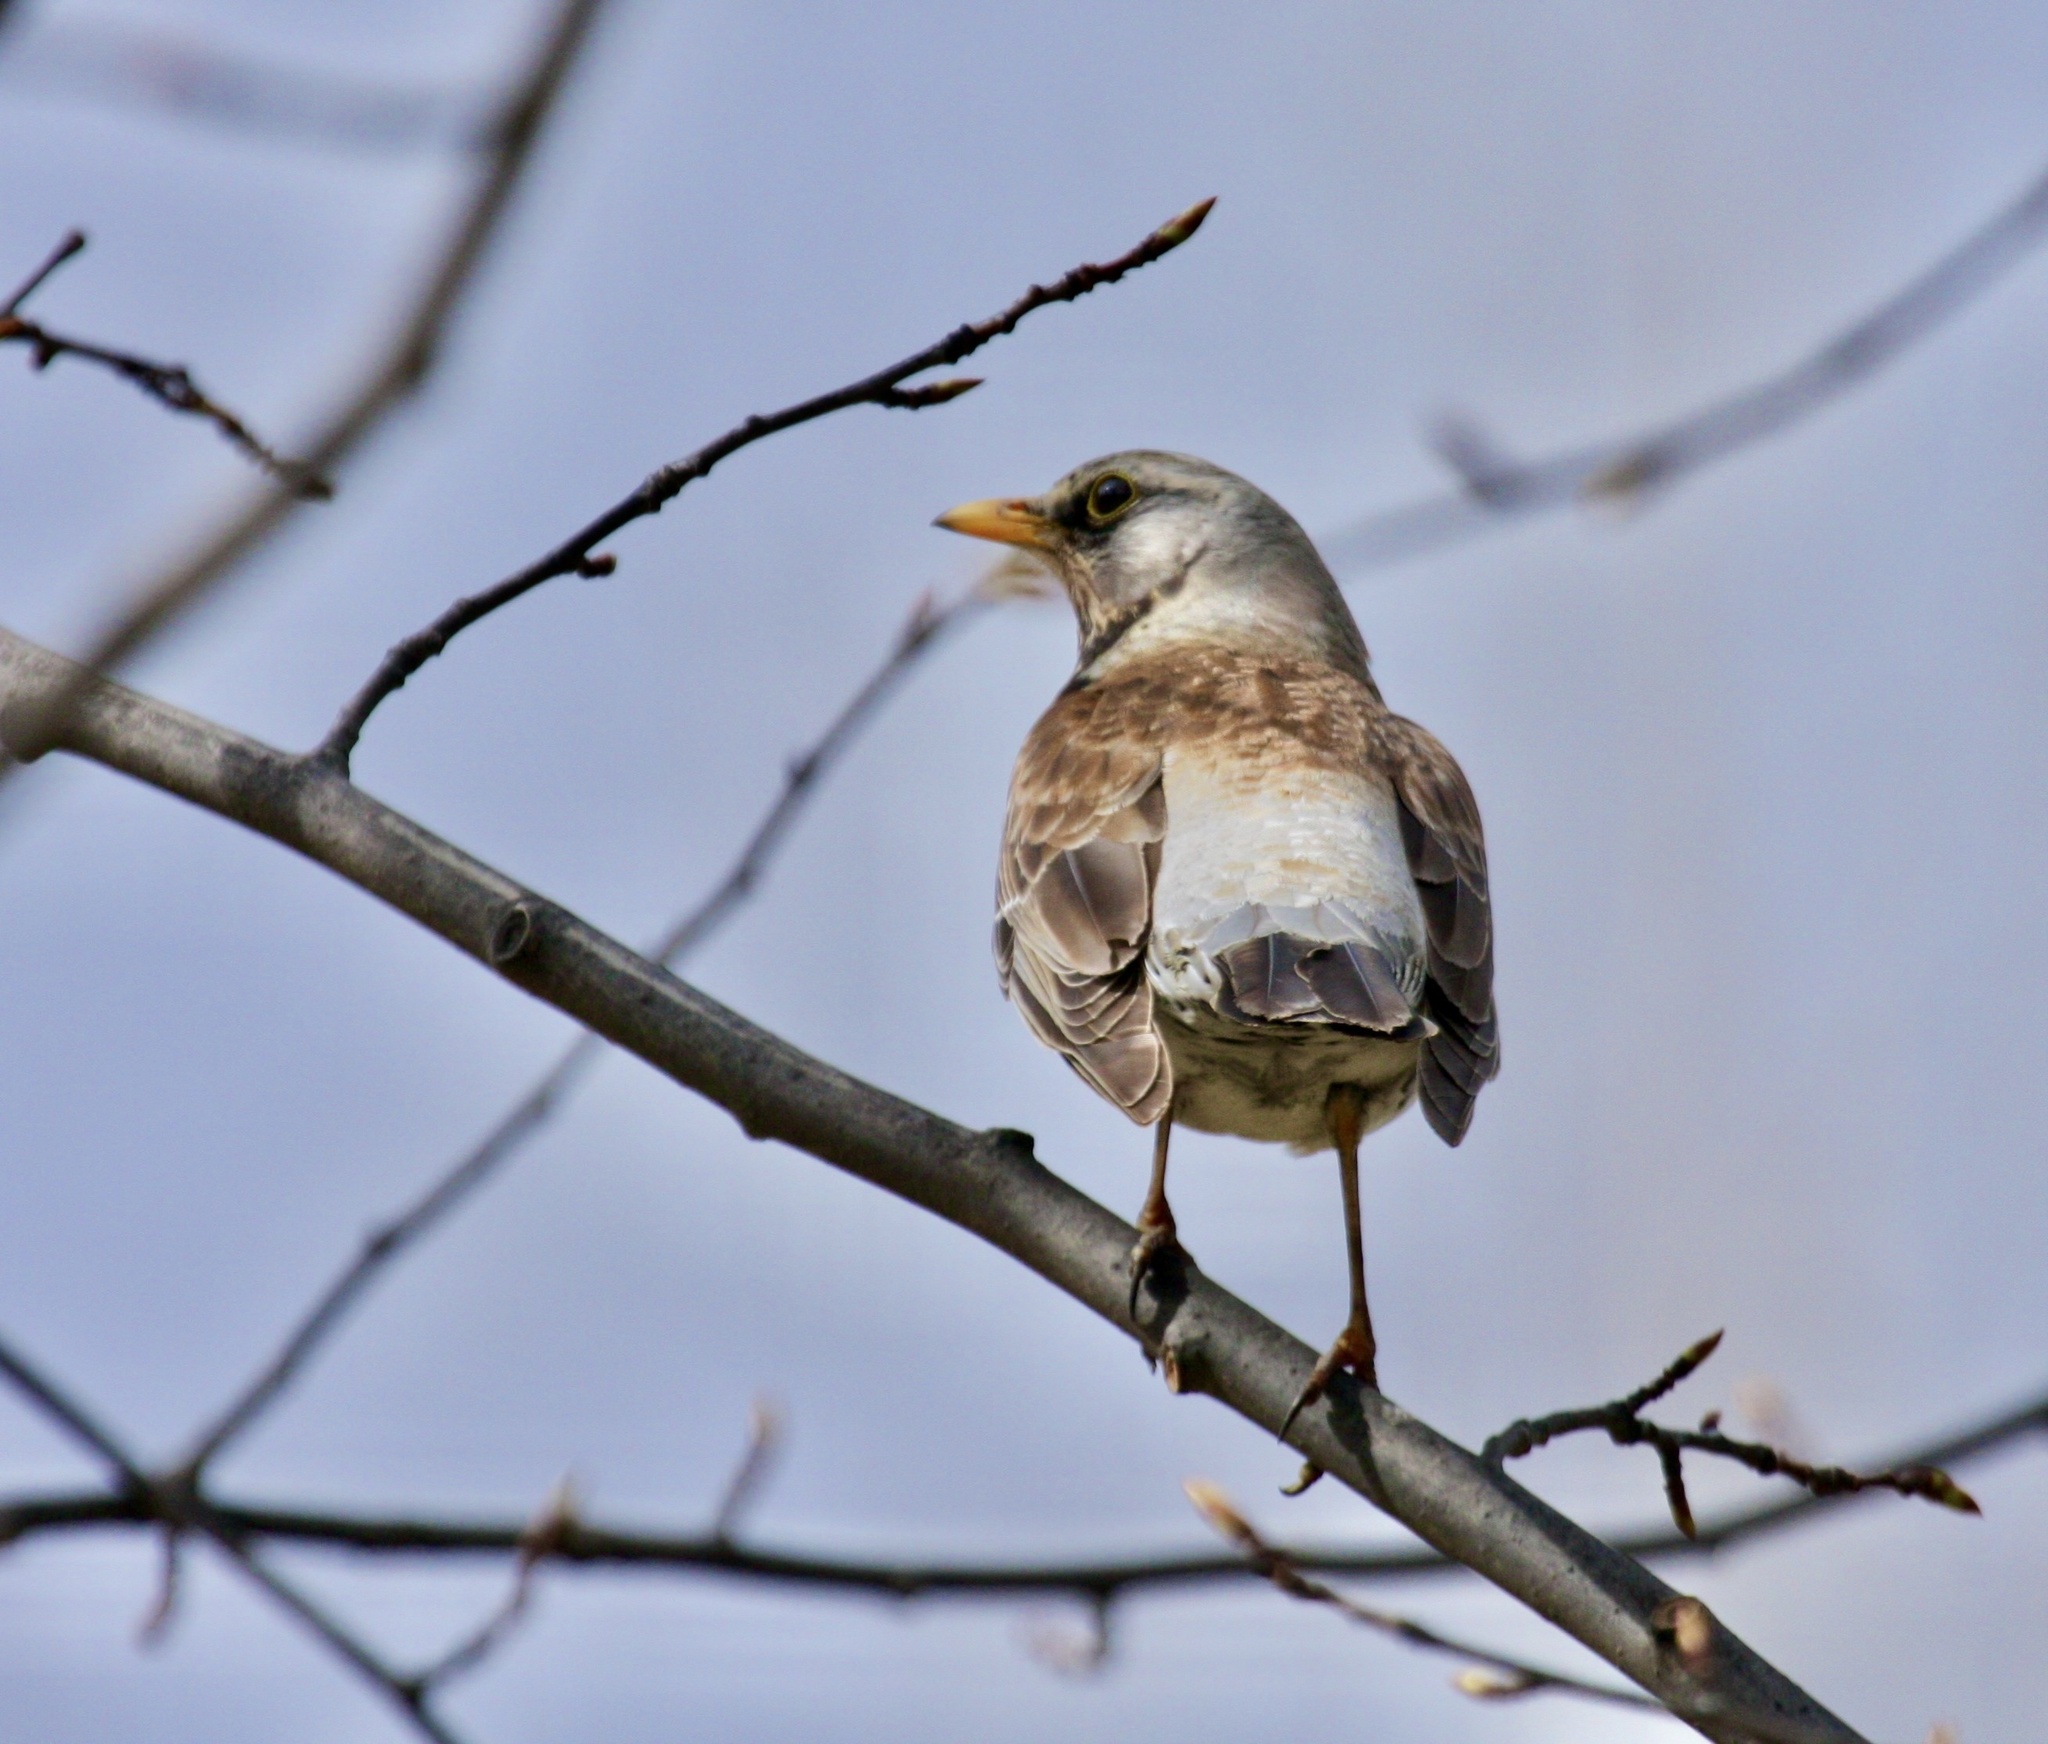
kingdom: Animalia
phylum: Chordata
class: Aves
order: Passeriformes
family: Turdidae
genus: Turdus
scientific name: Turdus pilaris
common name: Fieldfare
